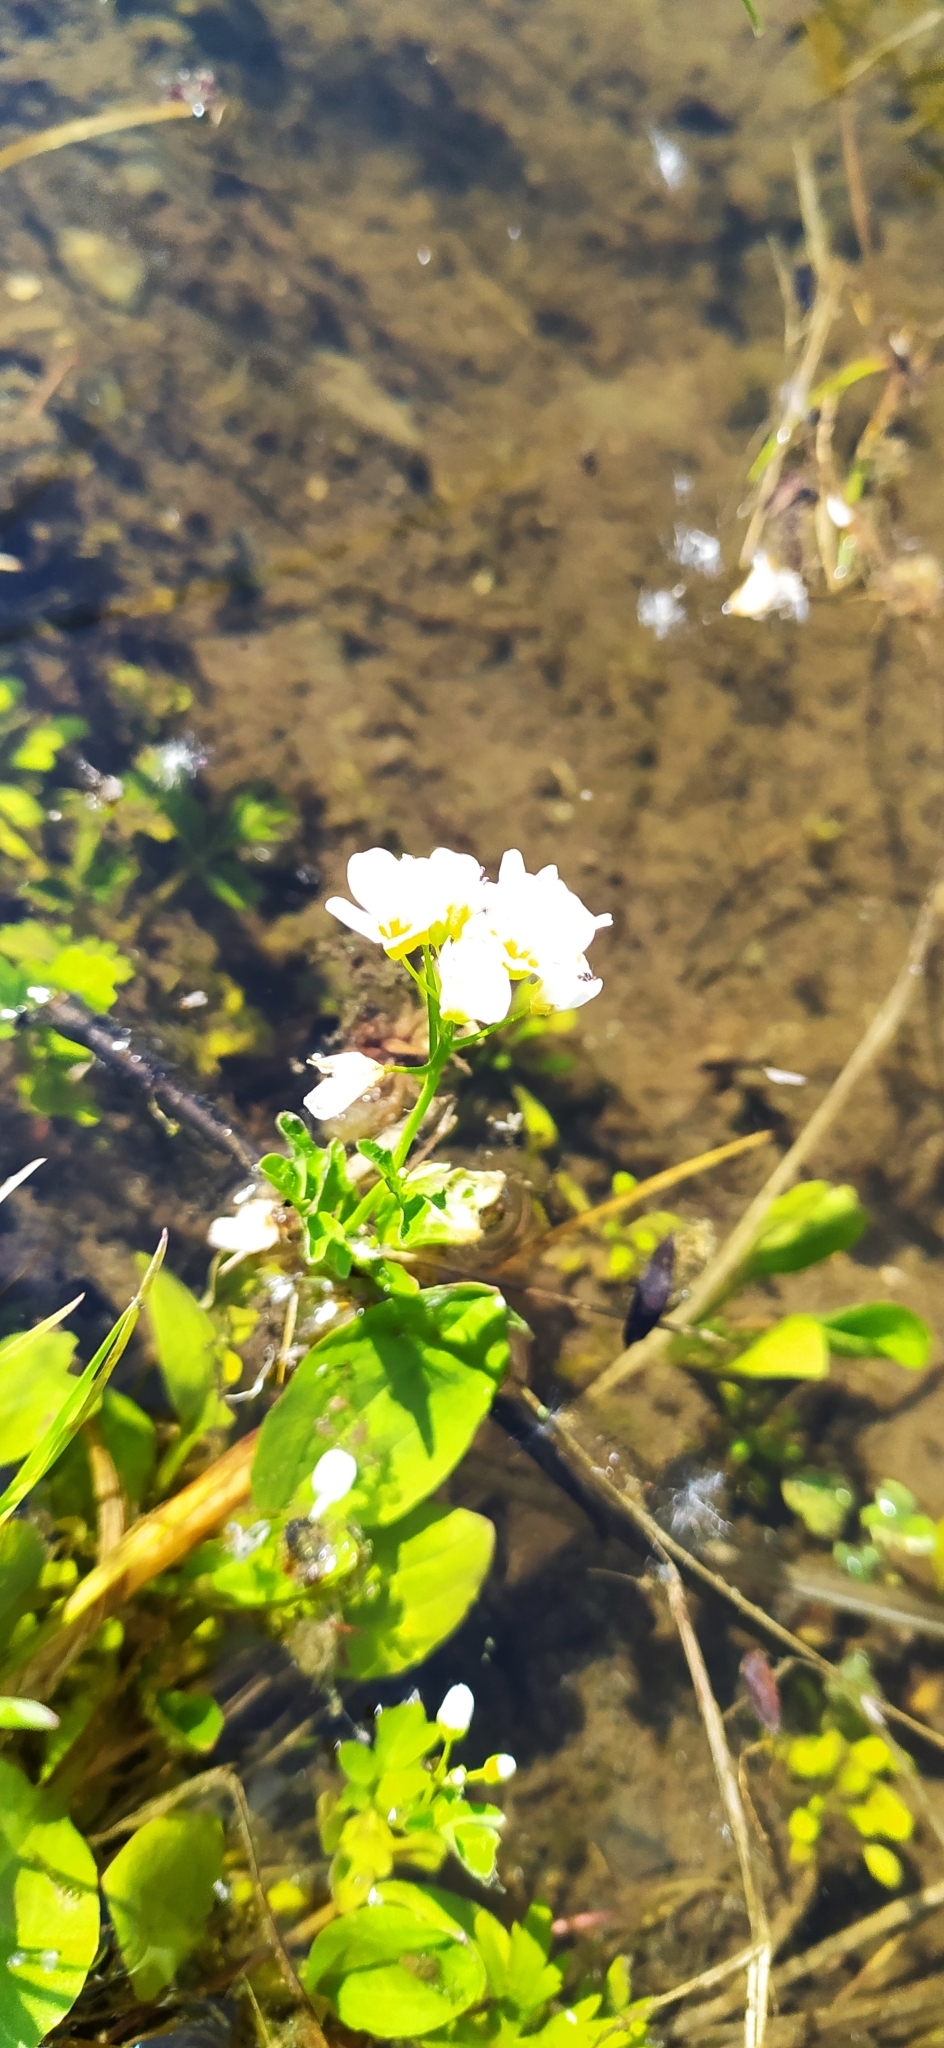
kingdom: Plantae
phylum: Tracheophyta
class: Magnoliopsida
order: Brassicales
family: Brassicaceae
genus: Cardamine
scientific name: Cardamine amara
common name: Large bitter-cress
